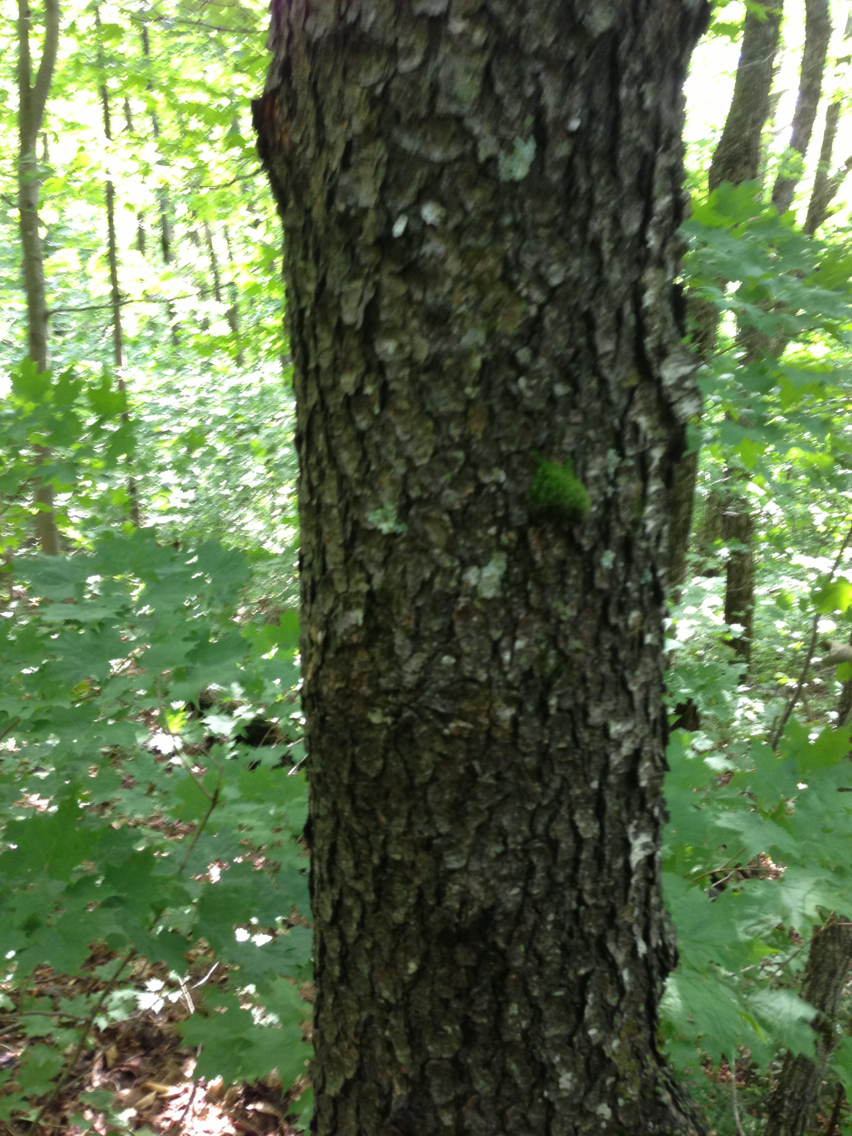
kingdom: Plantae
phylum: Tracheophyta
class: Magnoliopsida
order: Rosales
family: Rosaceae
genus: Prunus
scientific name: Prunus serotina
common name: Black cherry
